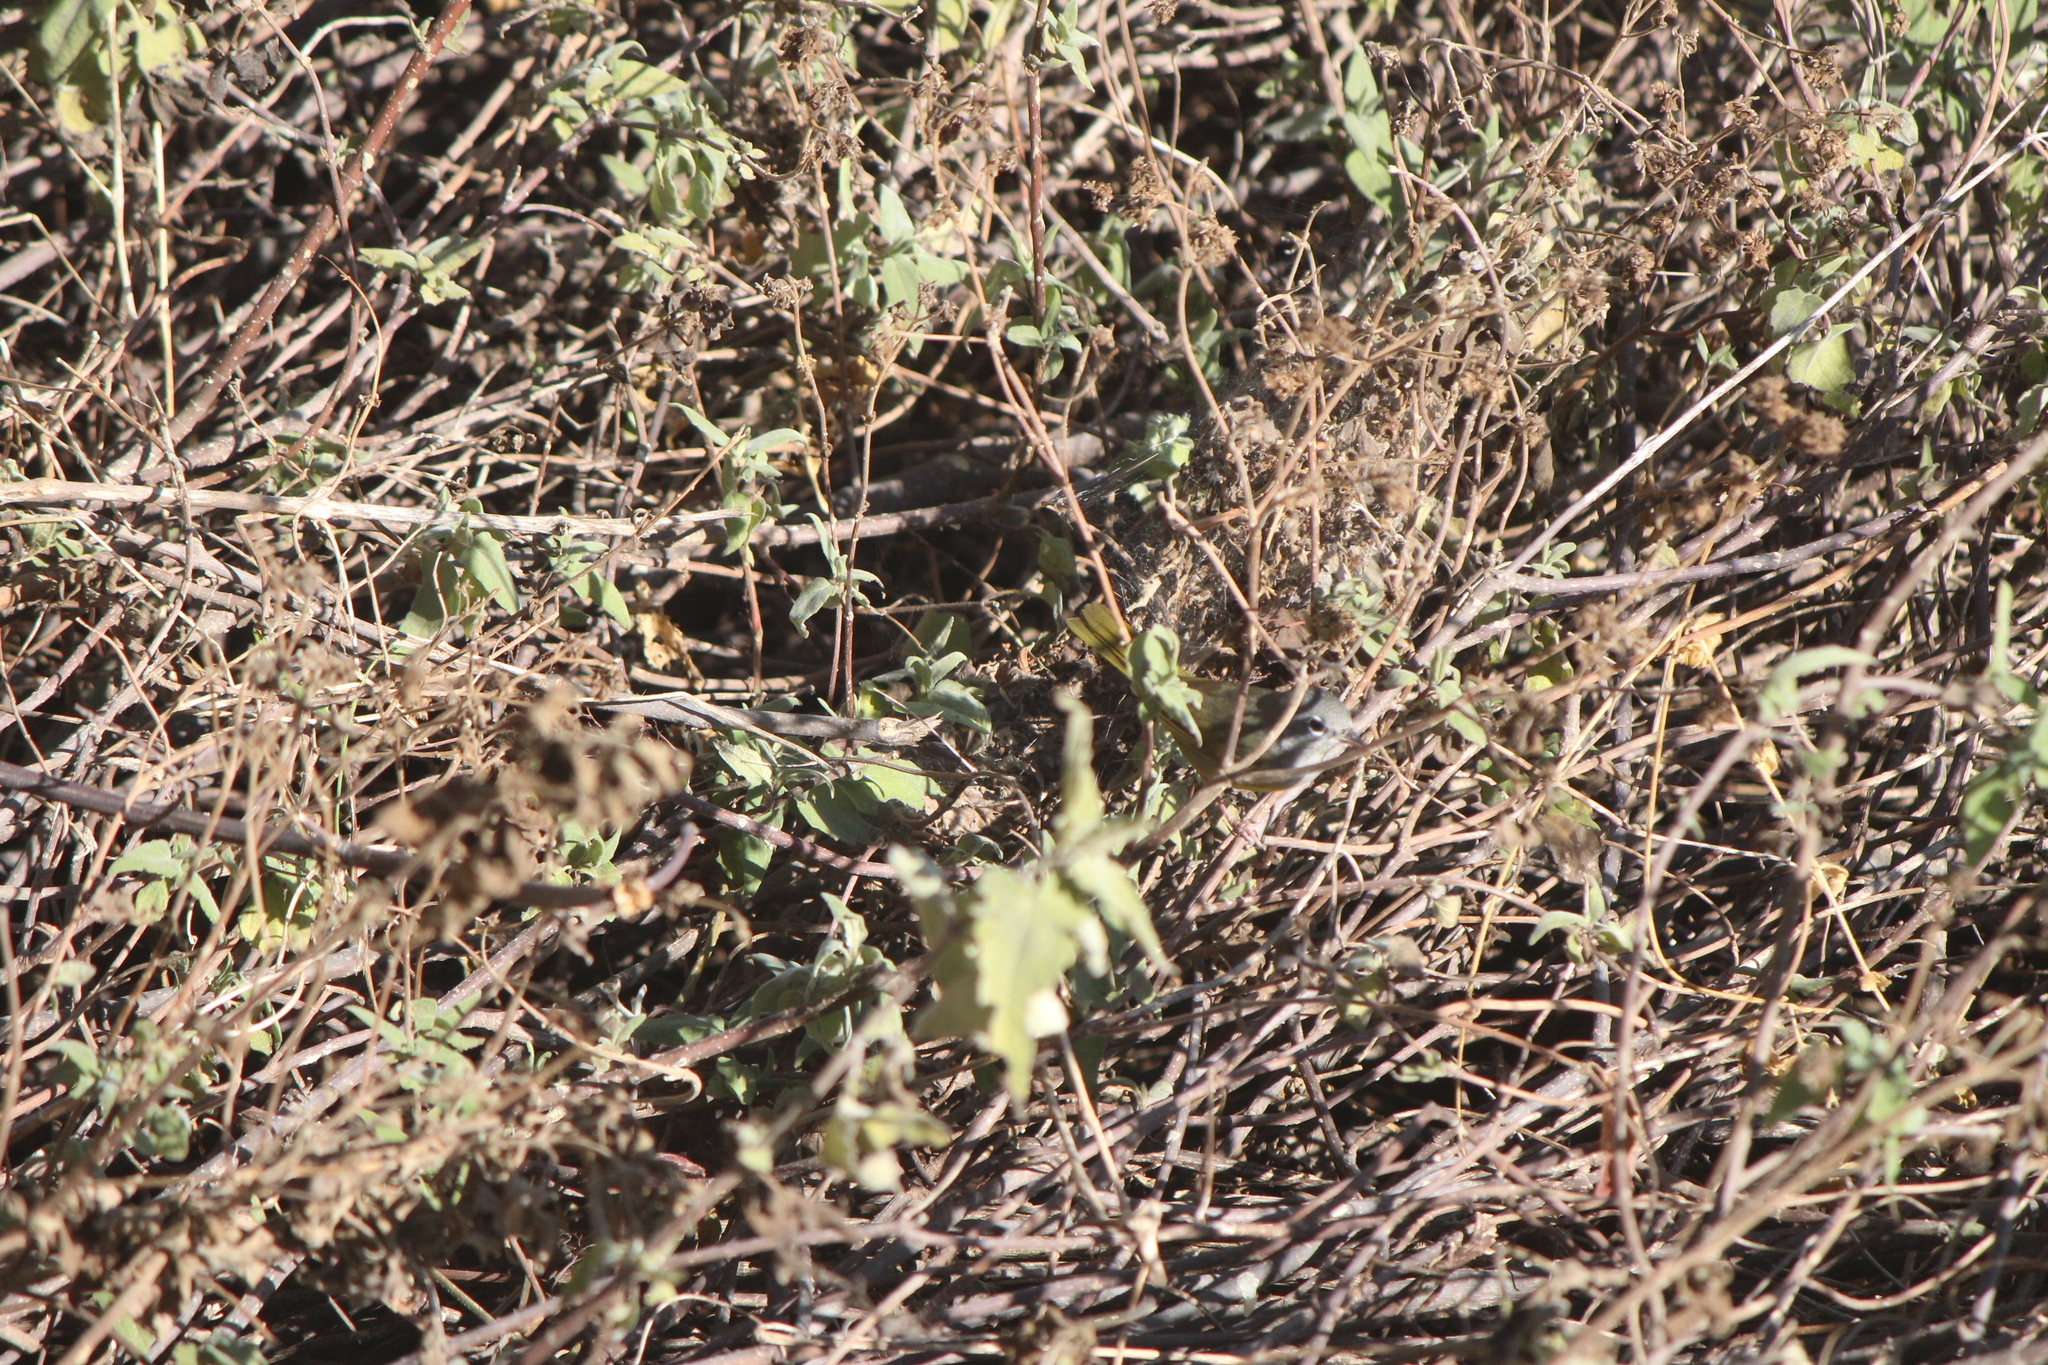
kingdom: Animalia
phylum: Chordata
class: Aves
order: Passeriformes
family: Parulidae
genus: Geothlypis
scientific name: Geothlypis tolmiei
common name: Macgillivray's warbler
